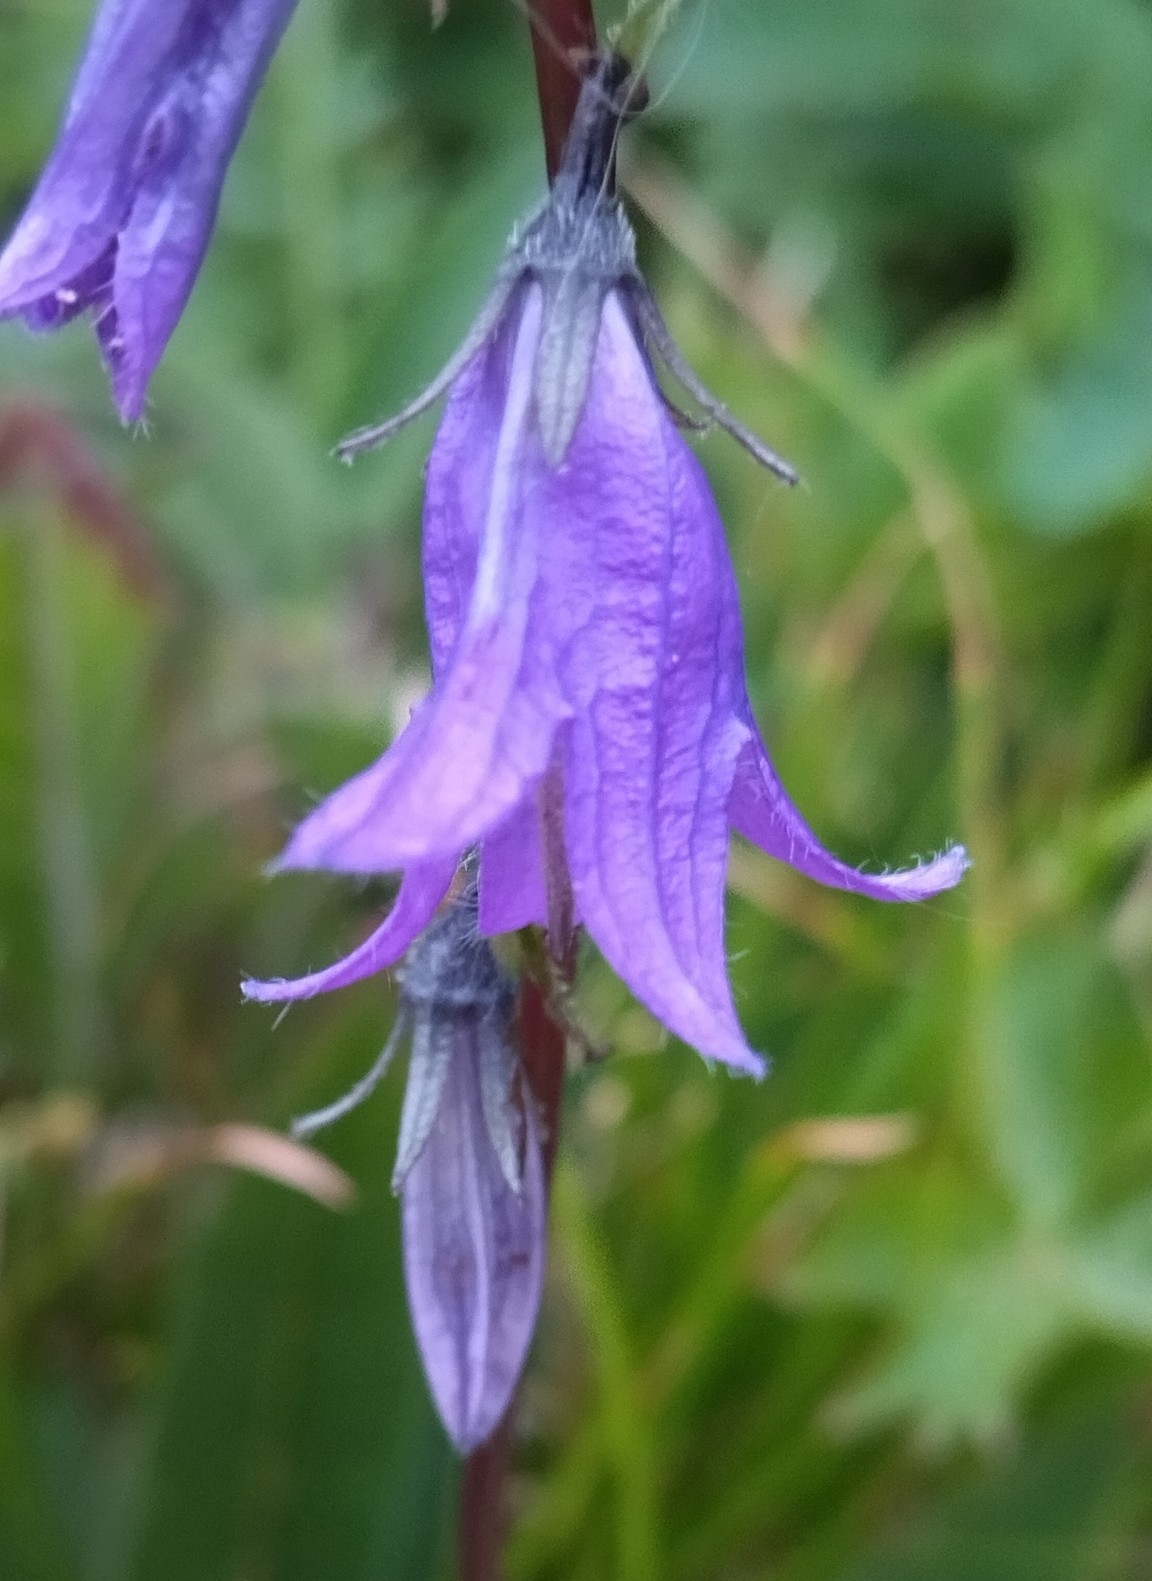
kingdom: Plantae
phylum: Tracheophyta
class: Magnoliopsida
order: Asterales
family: Campanulaceae
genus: Campanula
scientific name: Campanula collina
